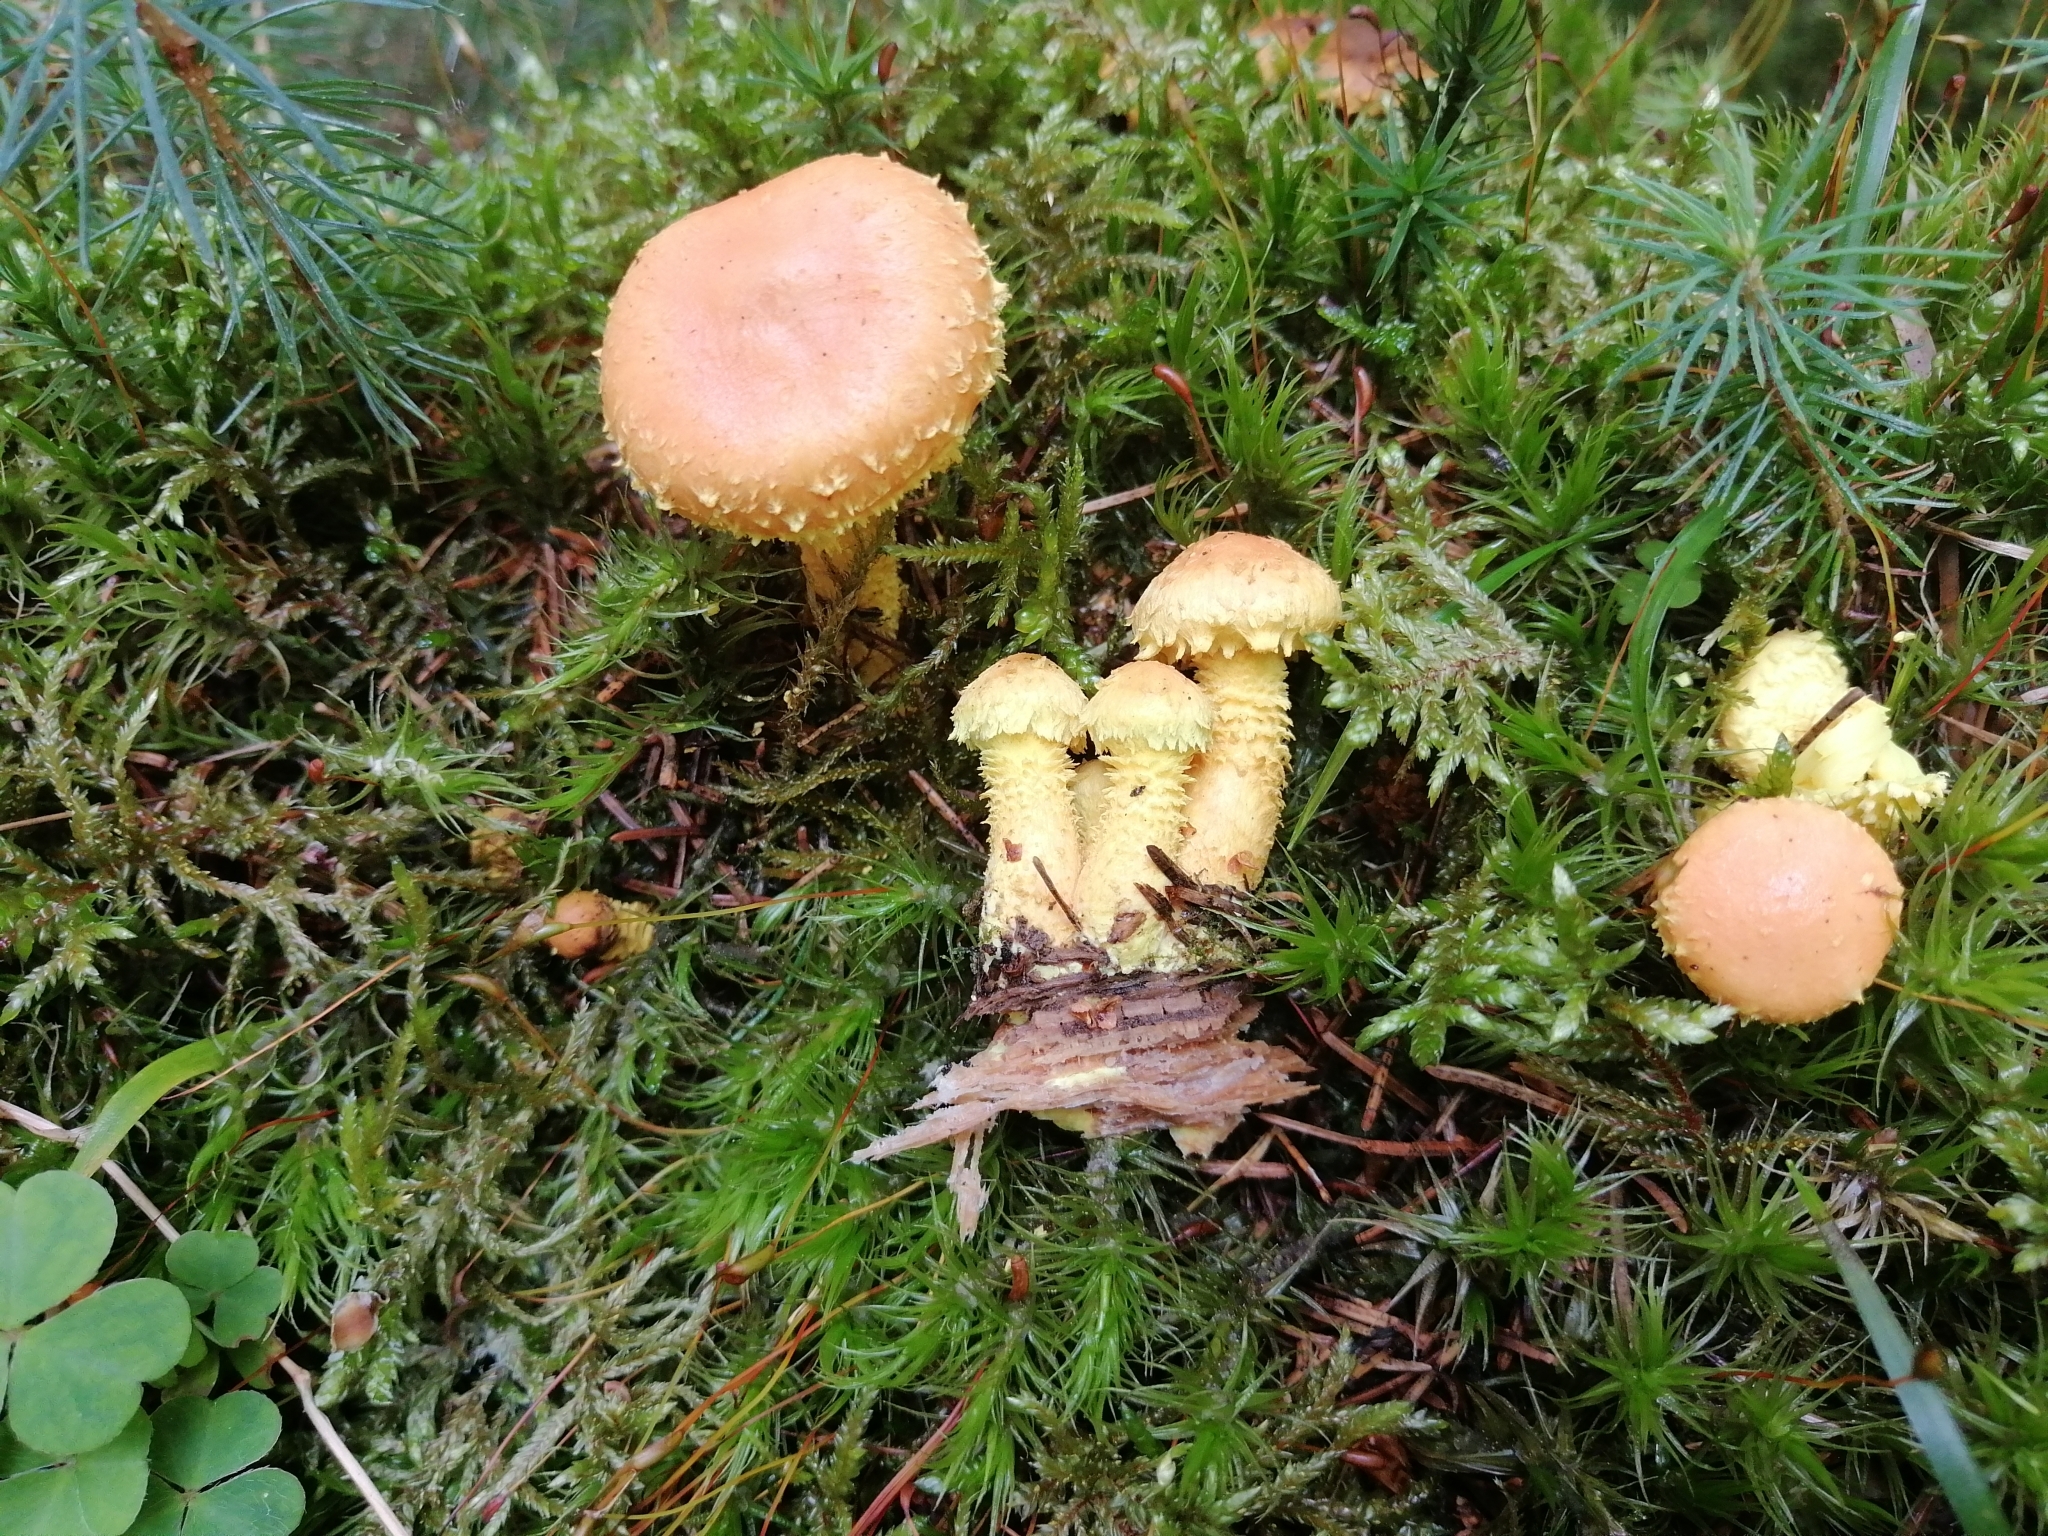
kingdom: Fungi
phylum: Basidiomycota
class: Agaricomycetes
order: Agaricales
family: Strophariaceae
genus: Pholiota
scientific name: Pholiota flammans
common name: Flaming scalycap
